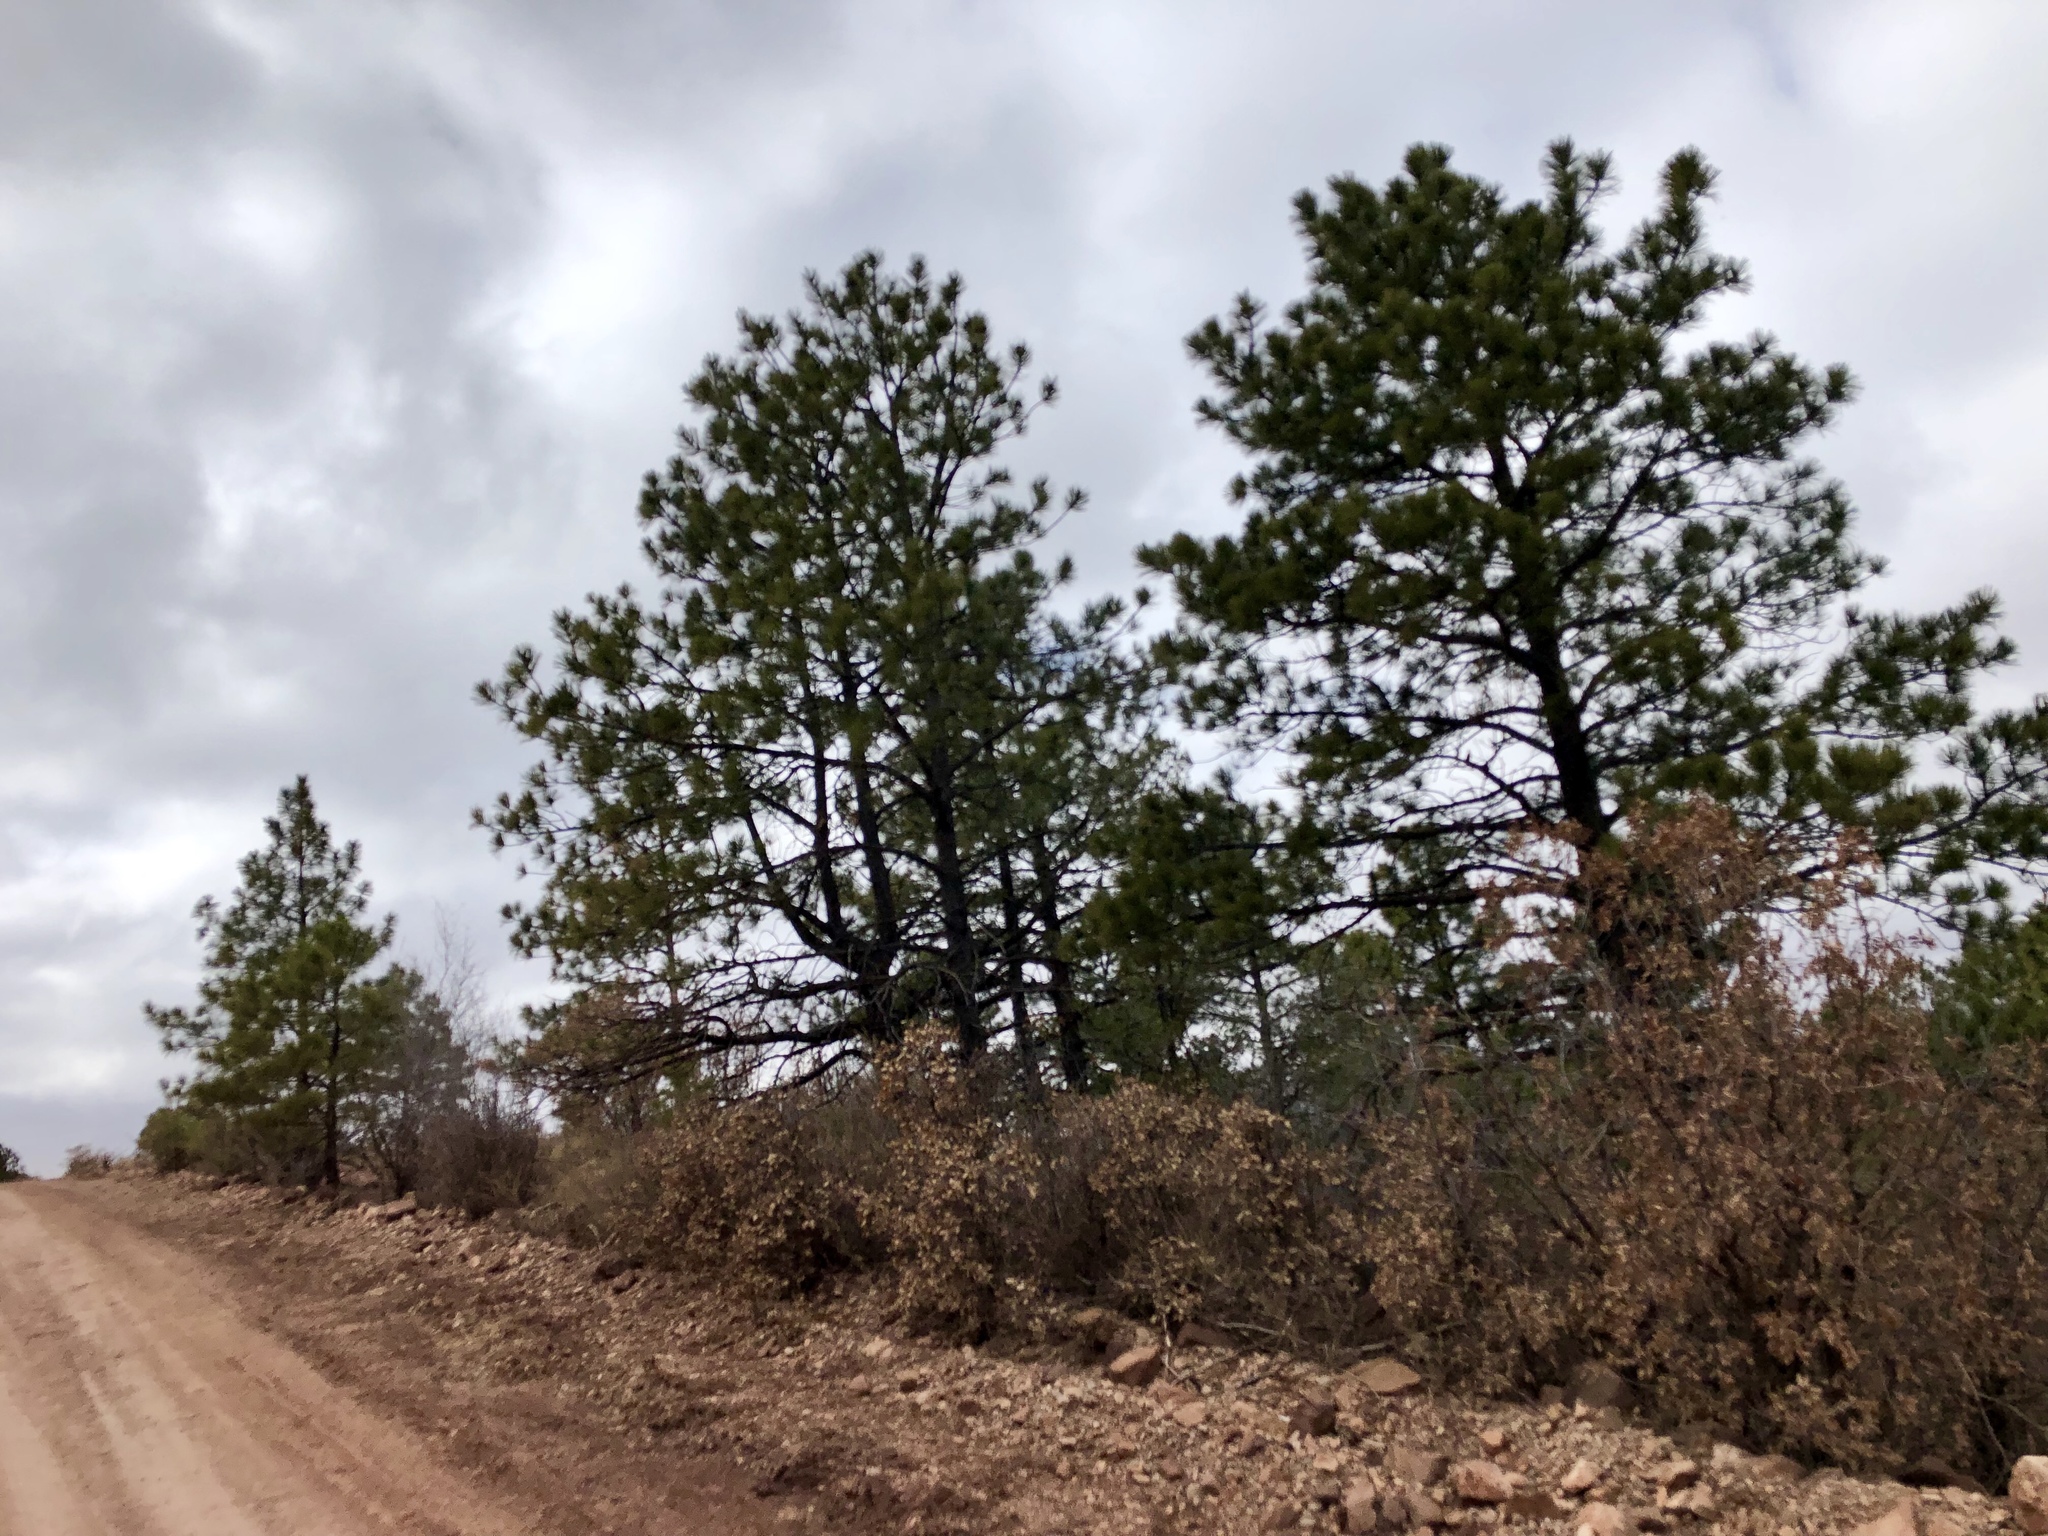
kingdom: Plantae
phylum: Tracheophyta
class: Pinopsida
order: Pinales
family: Pinaceae
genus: Pinus
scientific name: Pinus ponderosa
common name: Western yellow-pine
